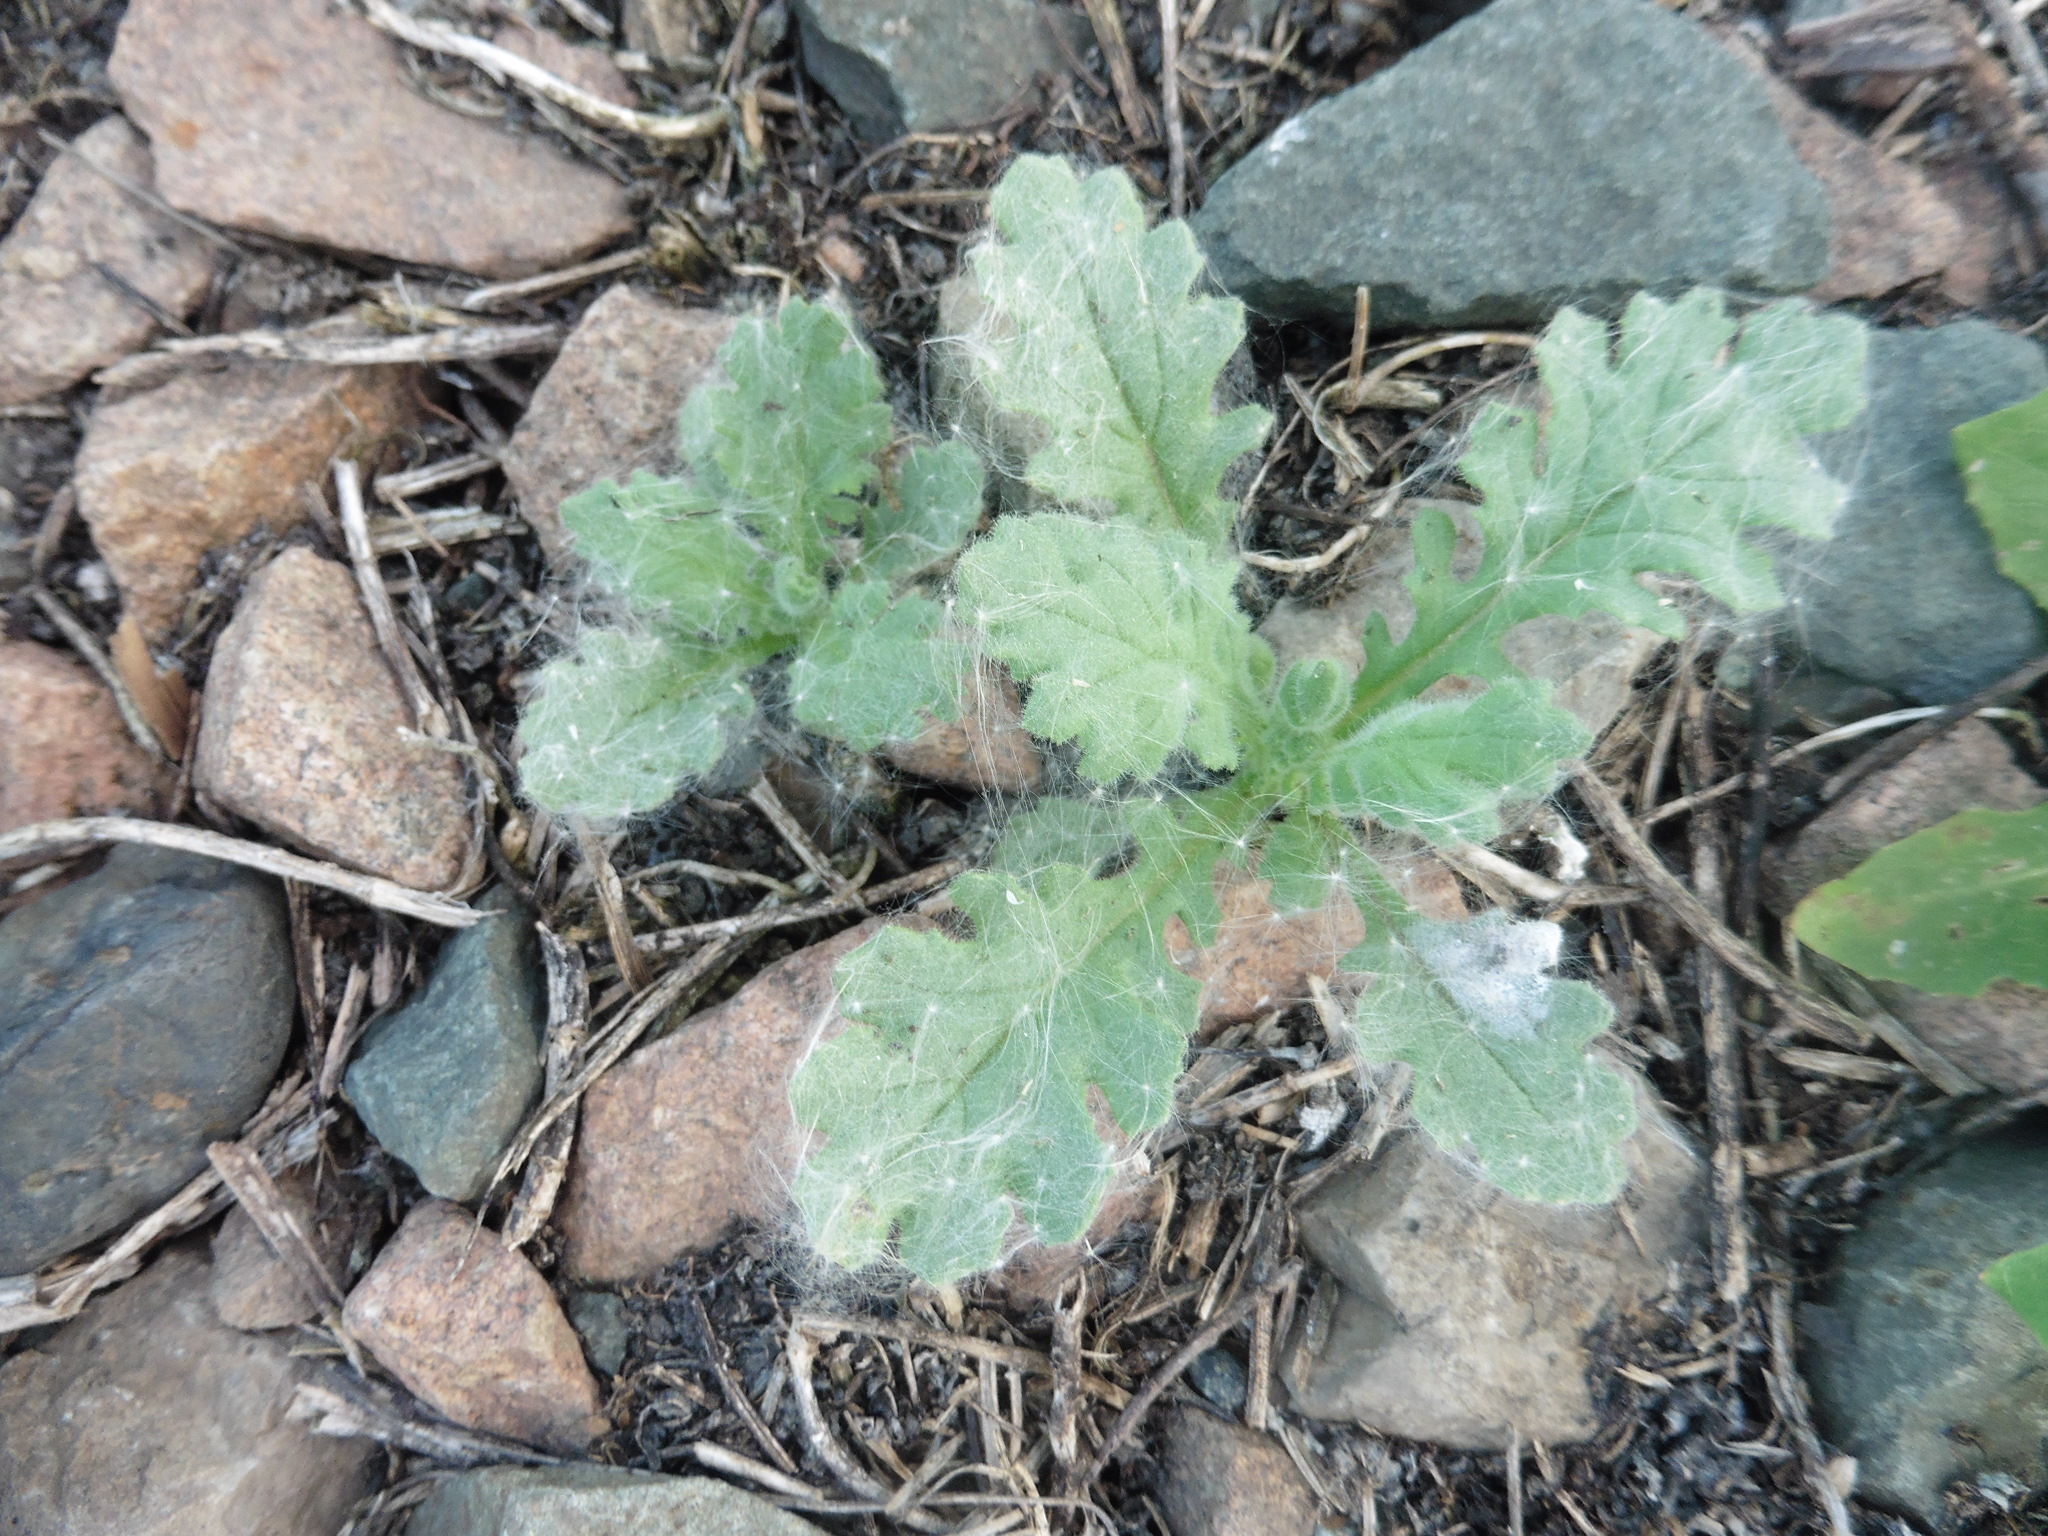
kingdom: Plantae
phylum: Tracheophyta
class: Magnoliopsida
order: Asterales
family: Asteraceae
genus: Senecio
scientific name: Senecio viscosus
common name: Sticky groundsel
